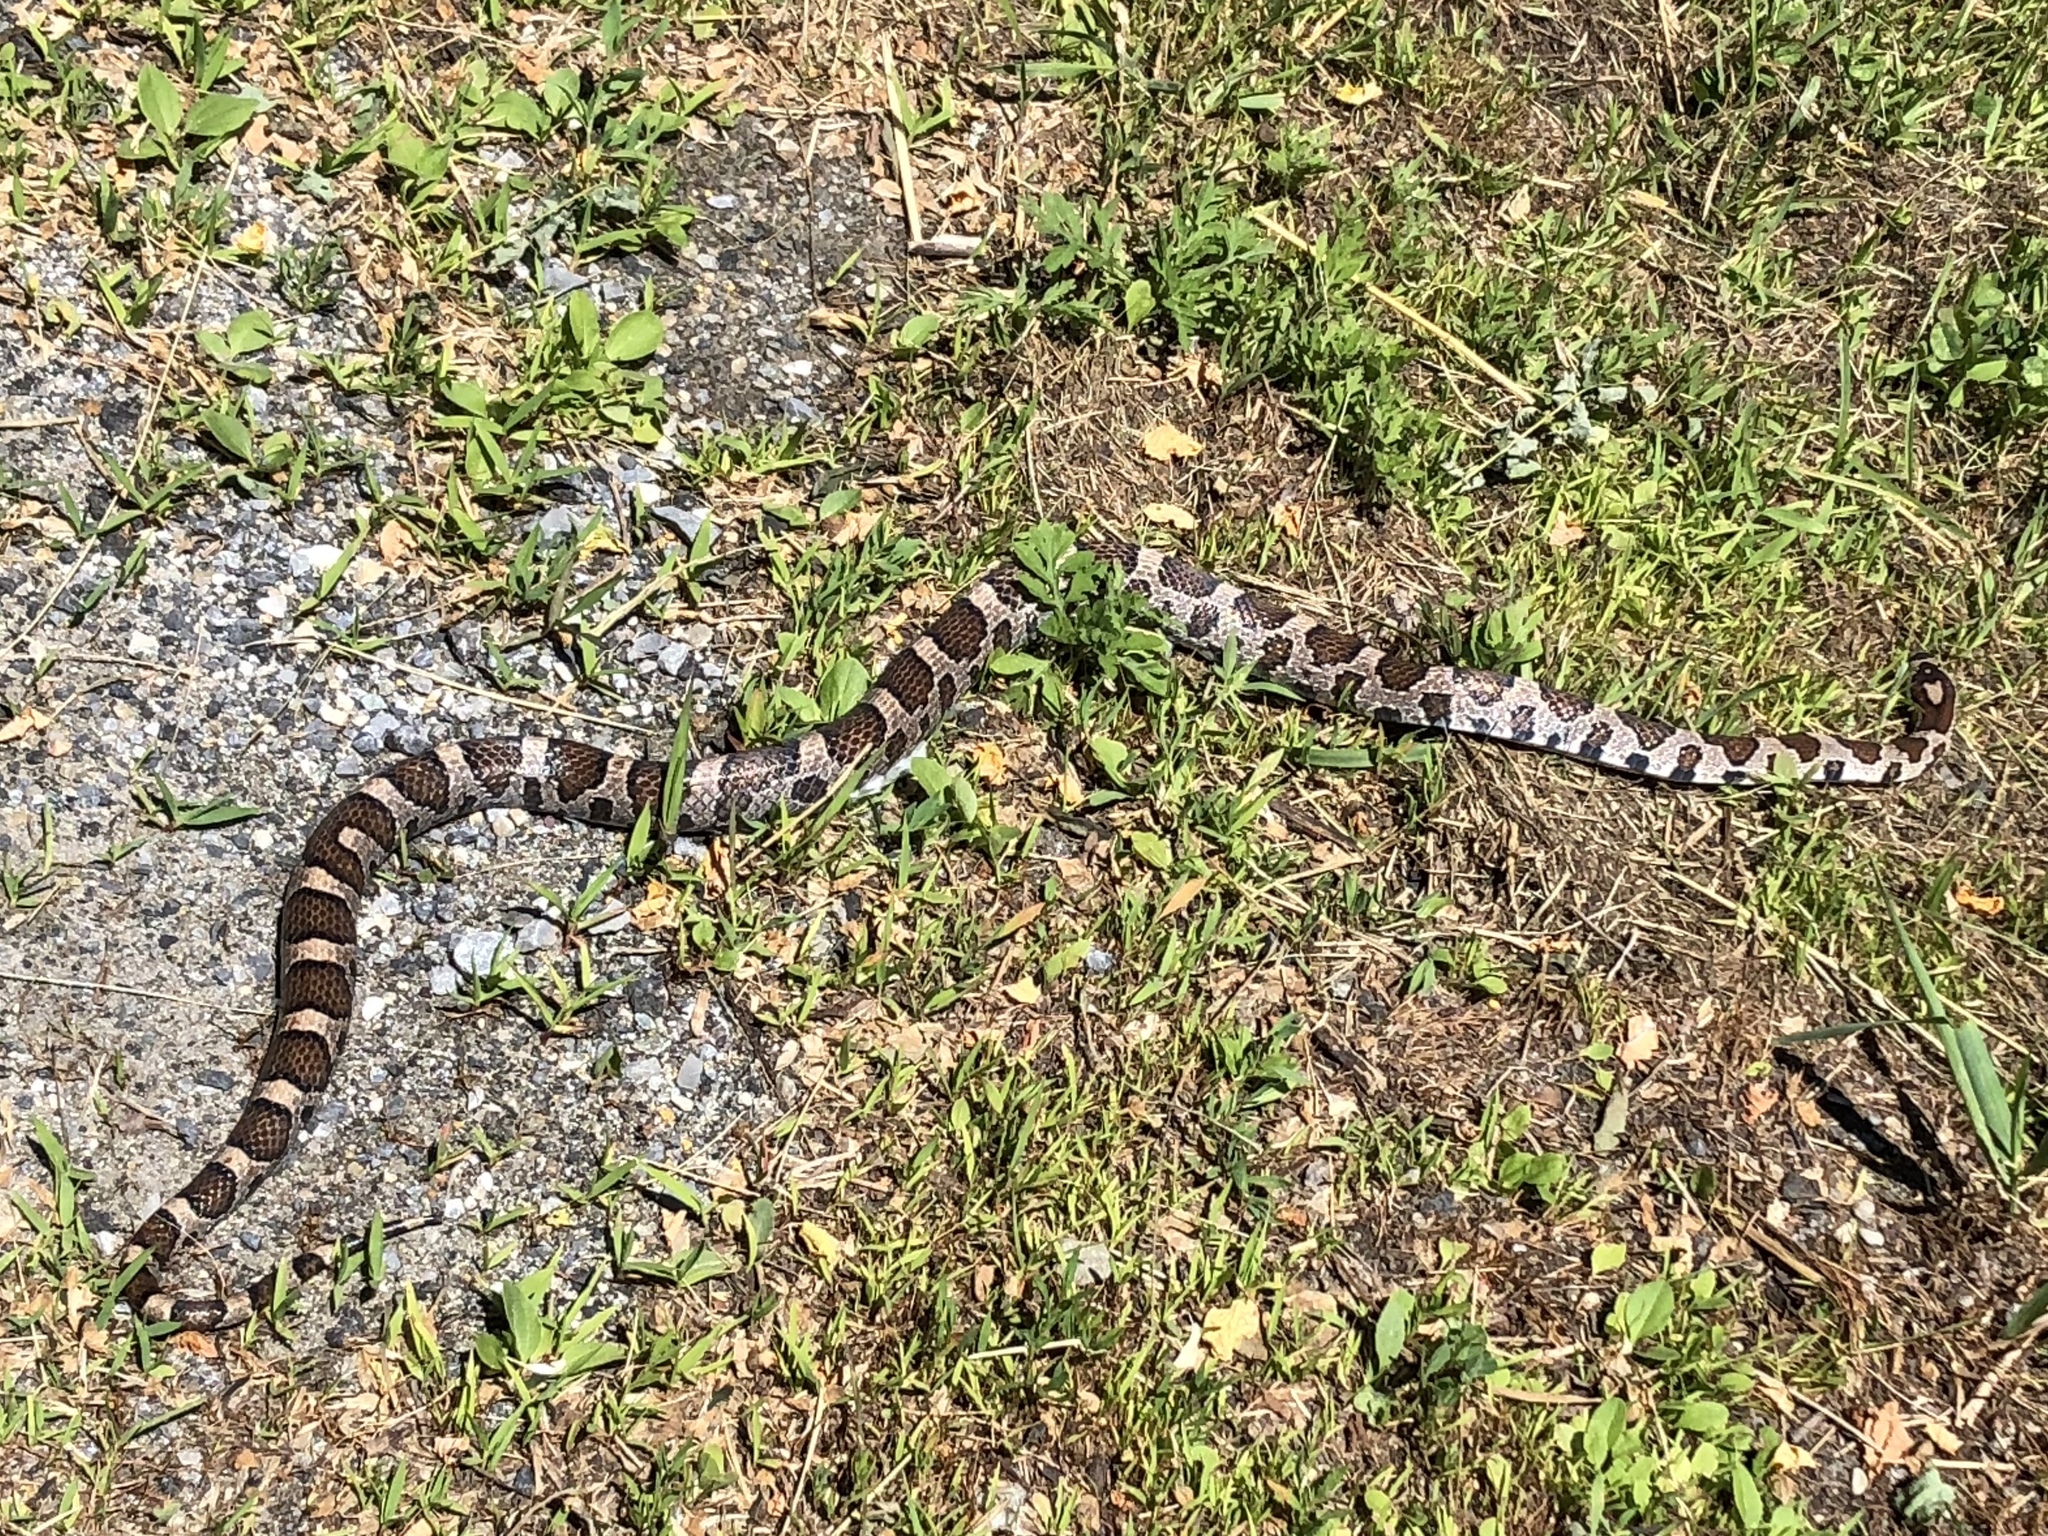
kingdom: Animalia
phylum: Chordata
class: Squamata
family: Colubridae
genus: Lampropeltis
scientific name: Lampropeltis triangulum
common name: Eastern milksnake
